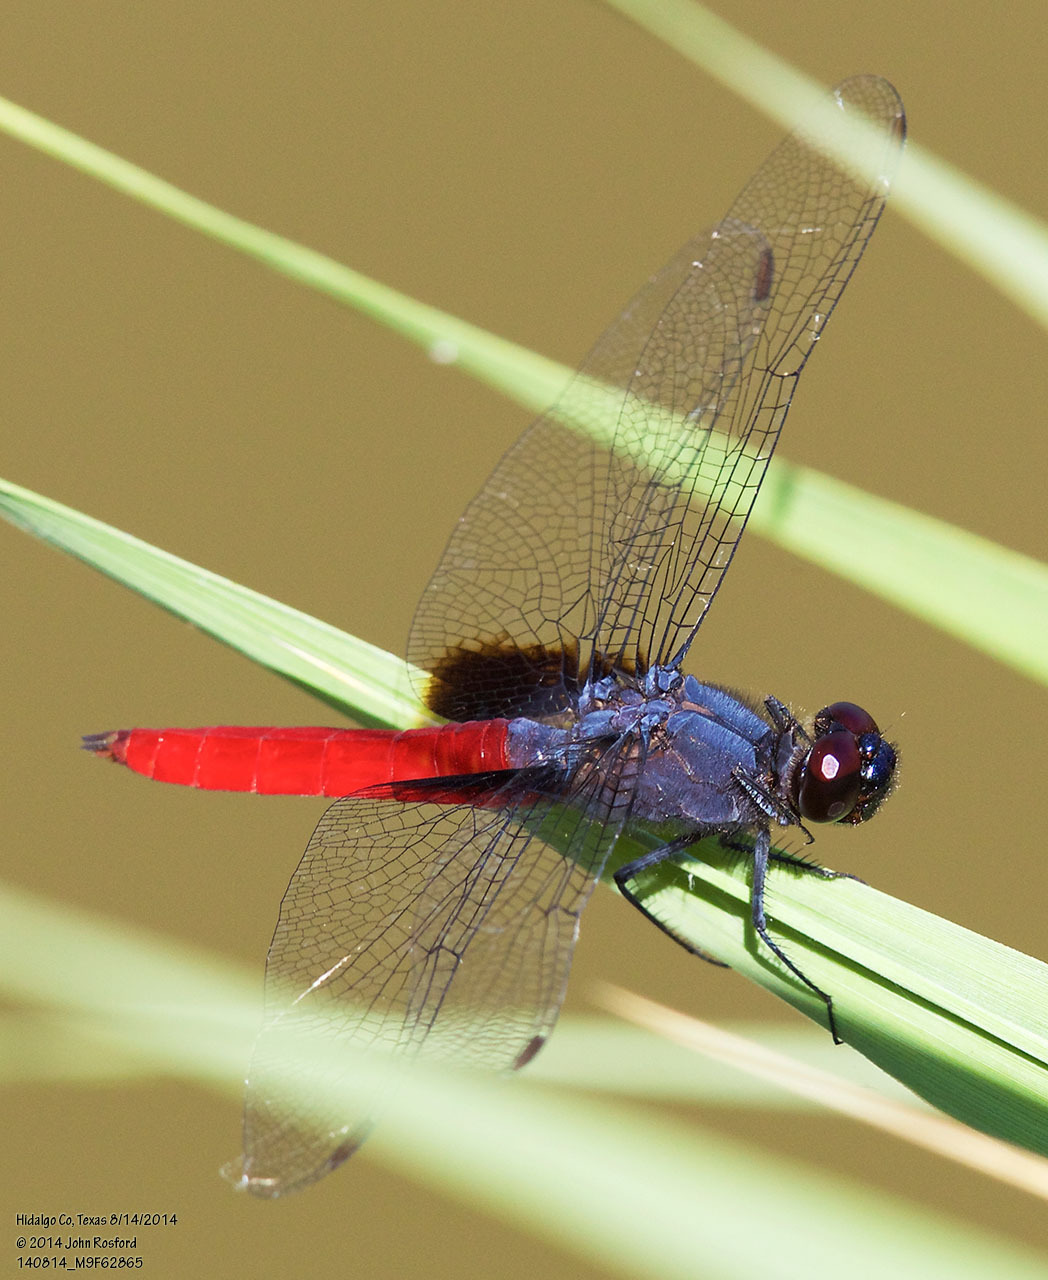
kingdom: Animalia
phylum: Arthropoda
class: Insecta
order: Odonata
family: Libellulidae
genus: Planiplax
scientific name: Planiplax sanguiniventris
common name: Mexican scarlet-tail
